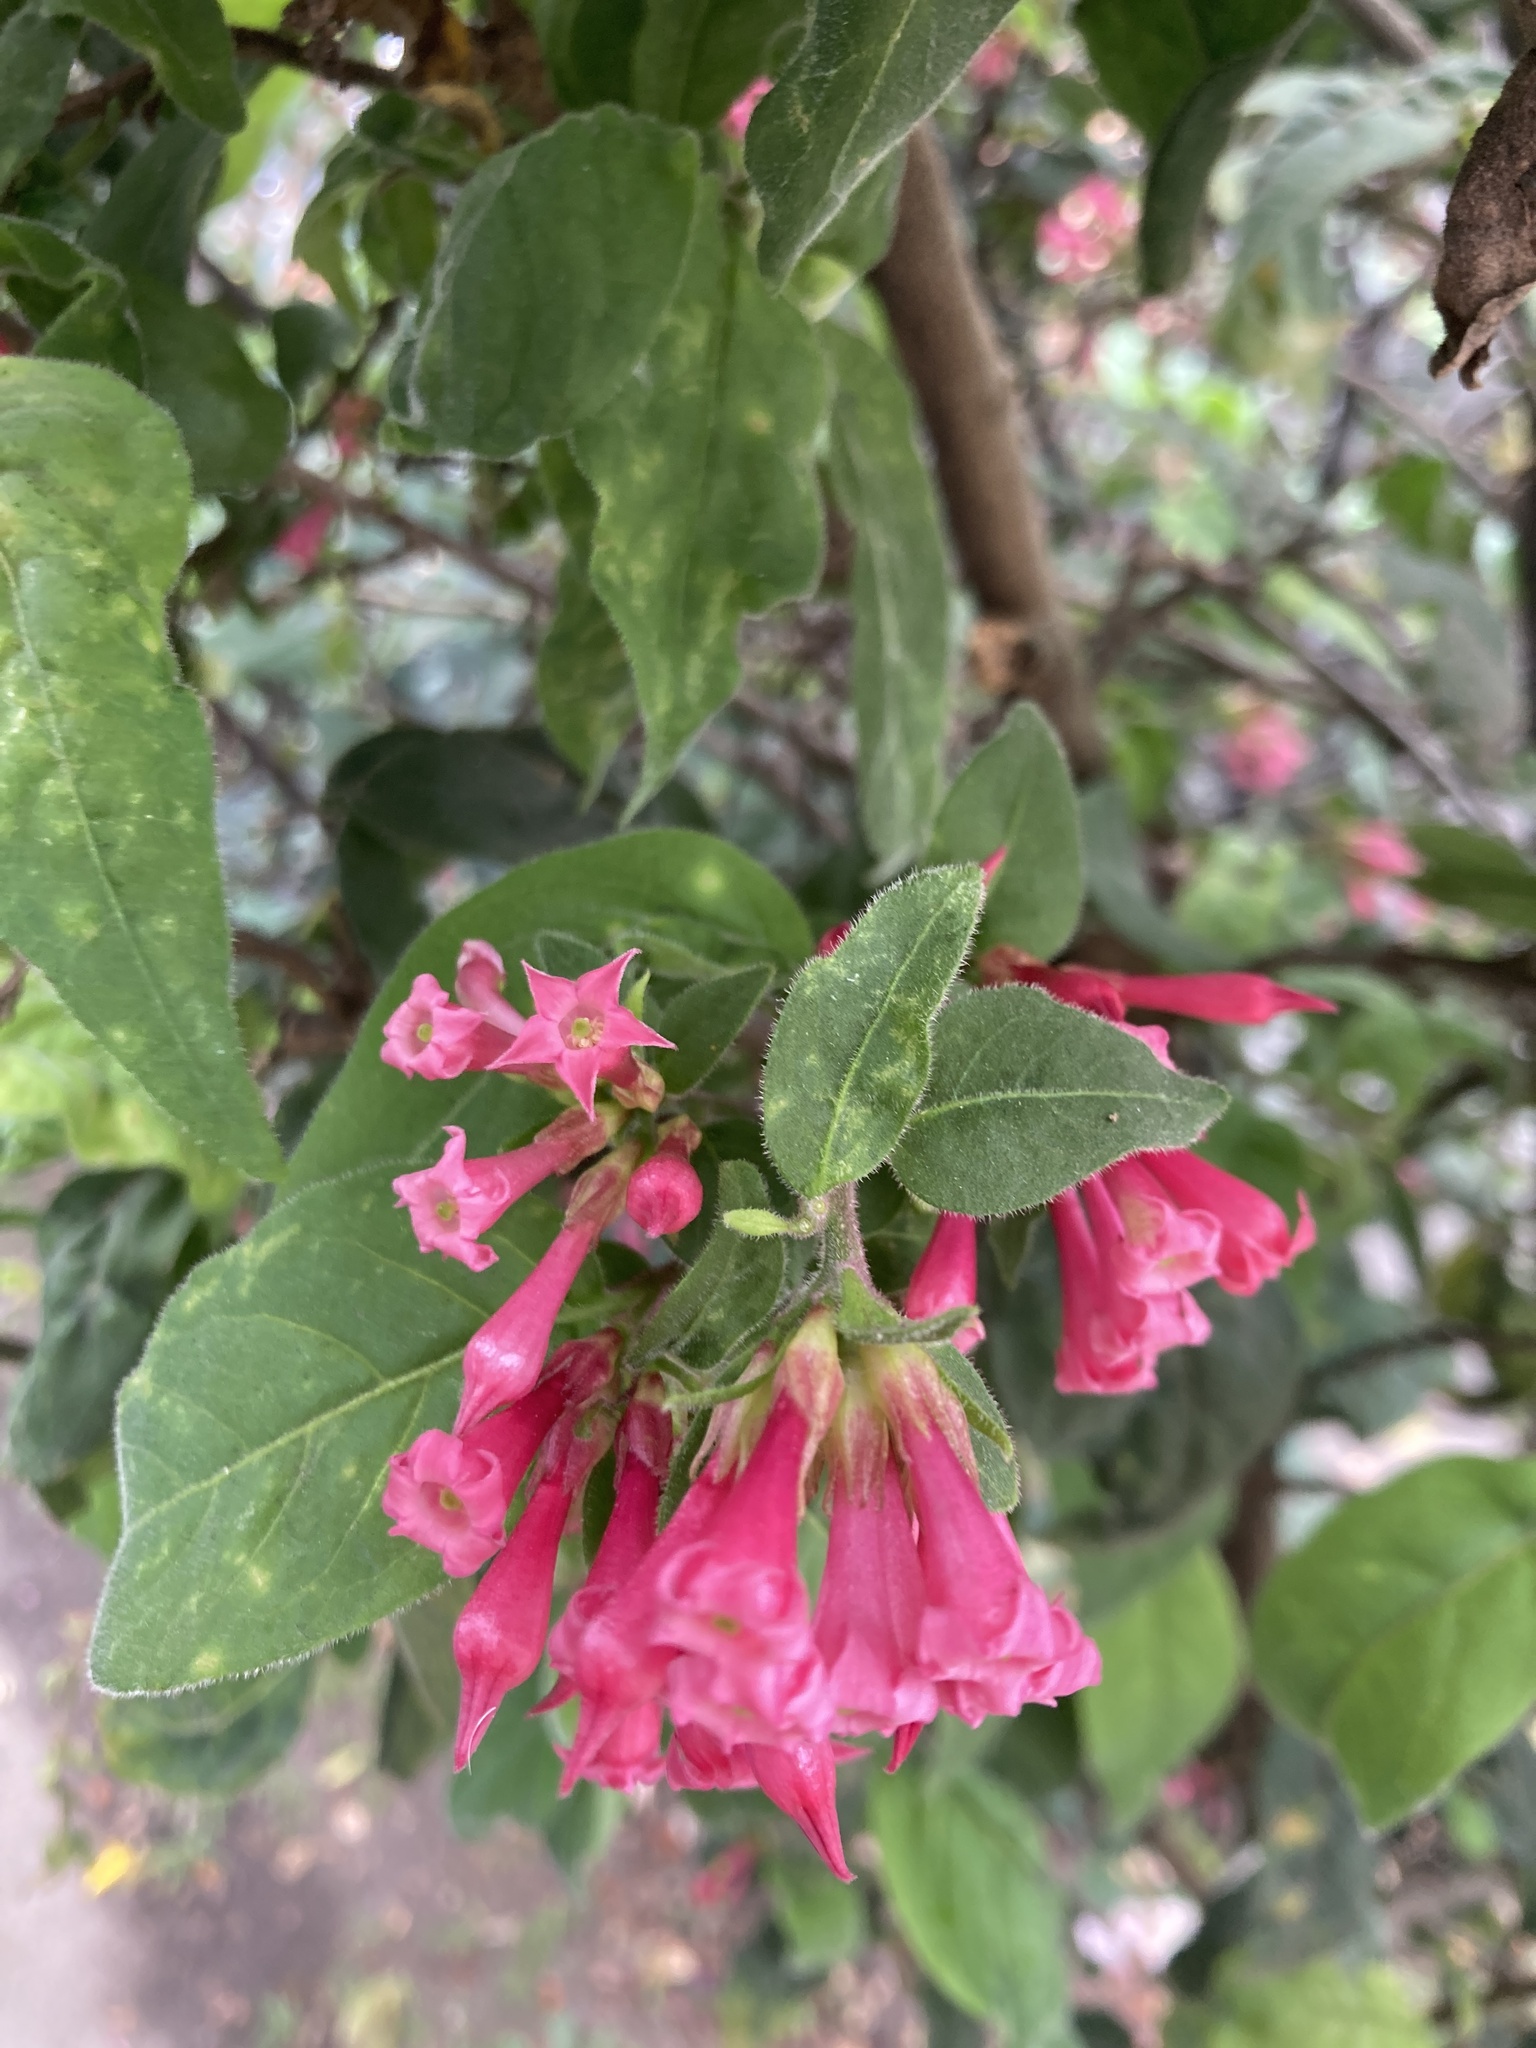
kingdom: Plantae
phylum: Tracheophyta
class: Magnoliopsida
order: Solanales
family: Solanaceae
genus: Cestrum
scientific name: Cestrum elegans
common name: Crimson cestrum
